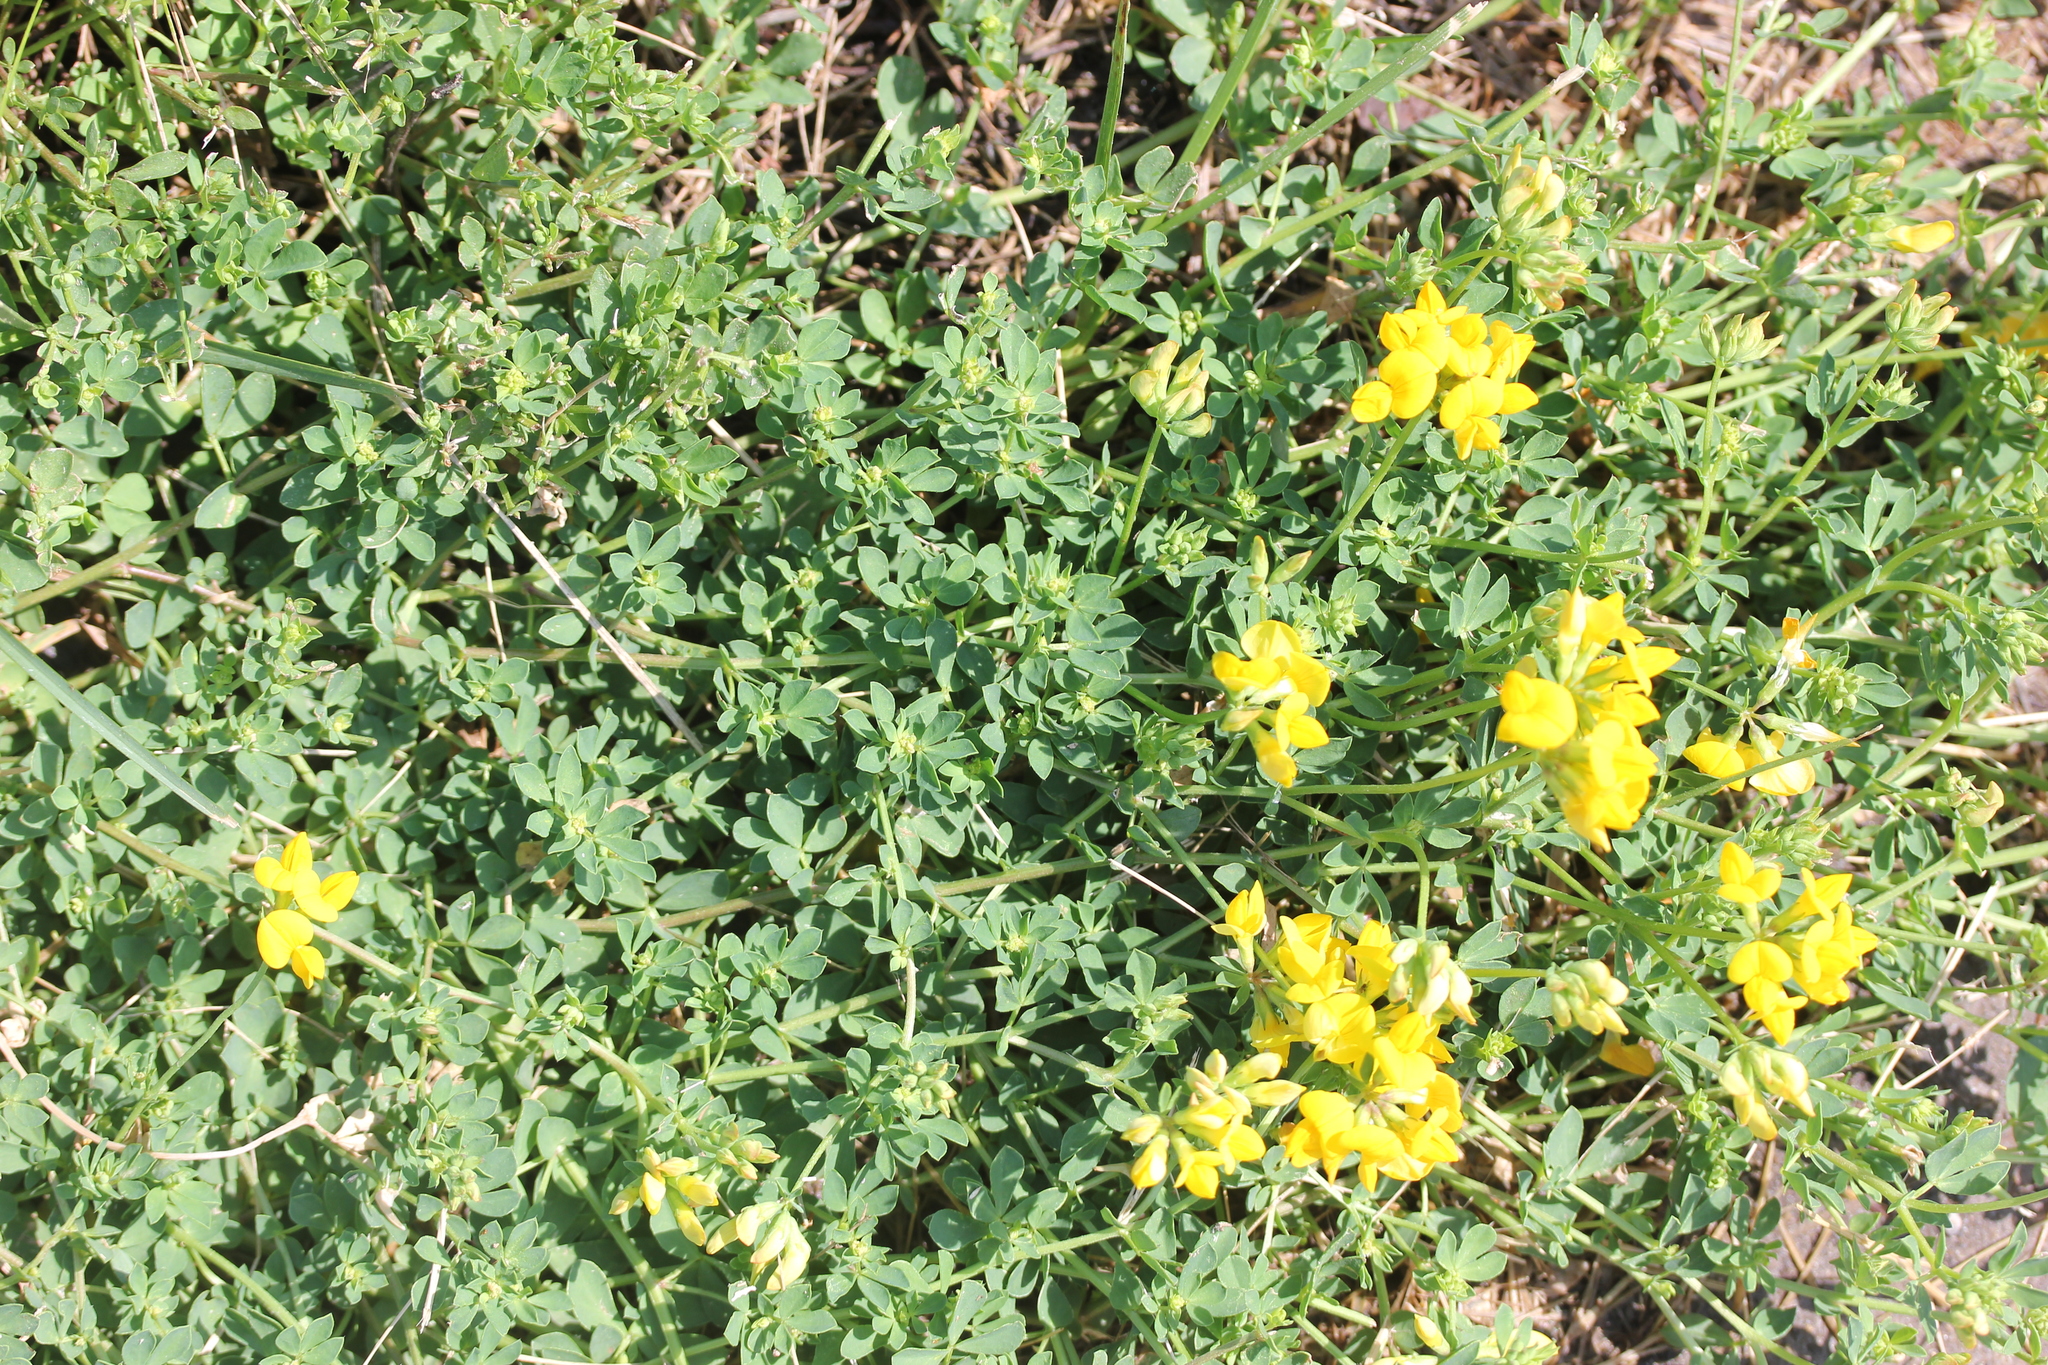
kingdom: Plantae
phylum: Tracheophyta
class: Magnoliopsida
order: Fabales
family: Fabaceae
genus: Lotus
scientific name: Lotus corniculatus
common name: Common bird's-foot-trefoil
